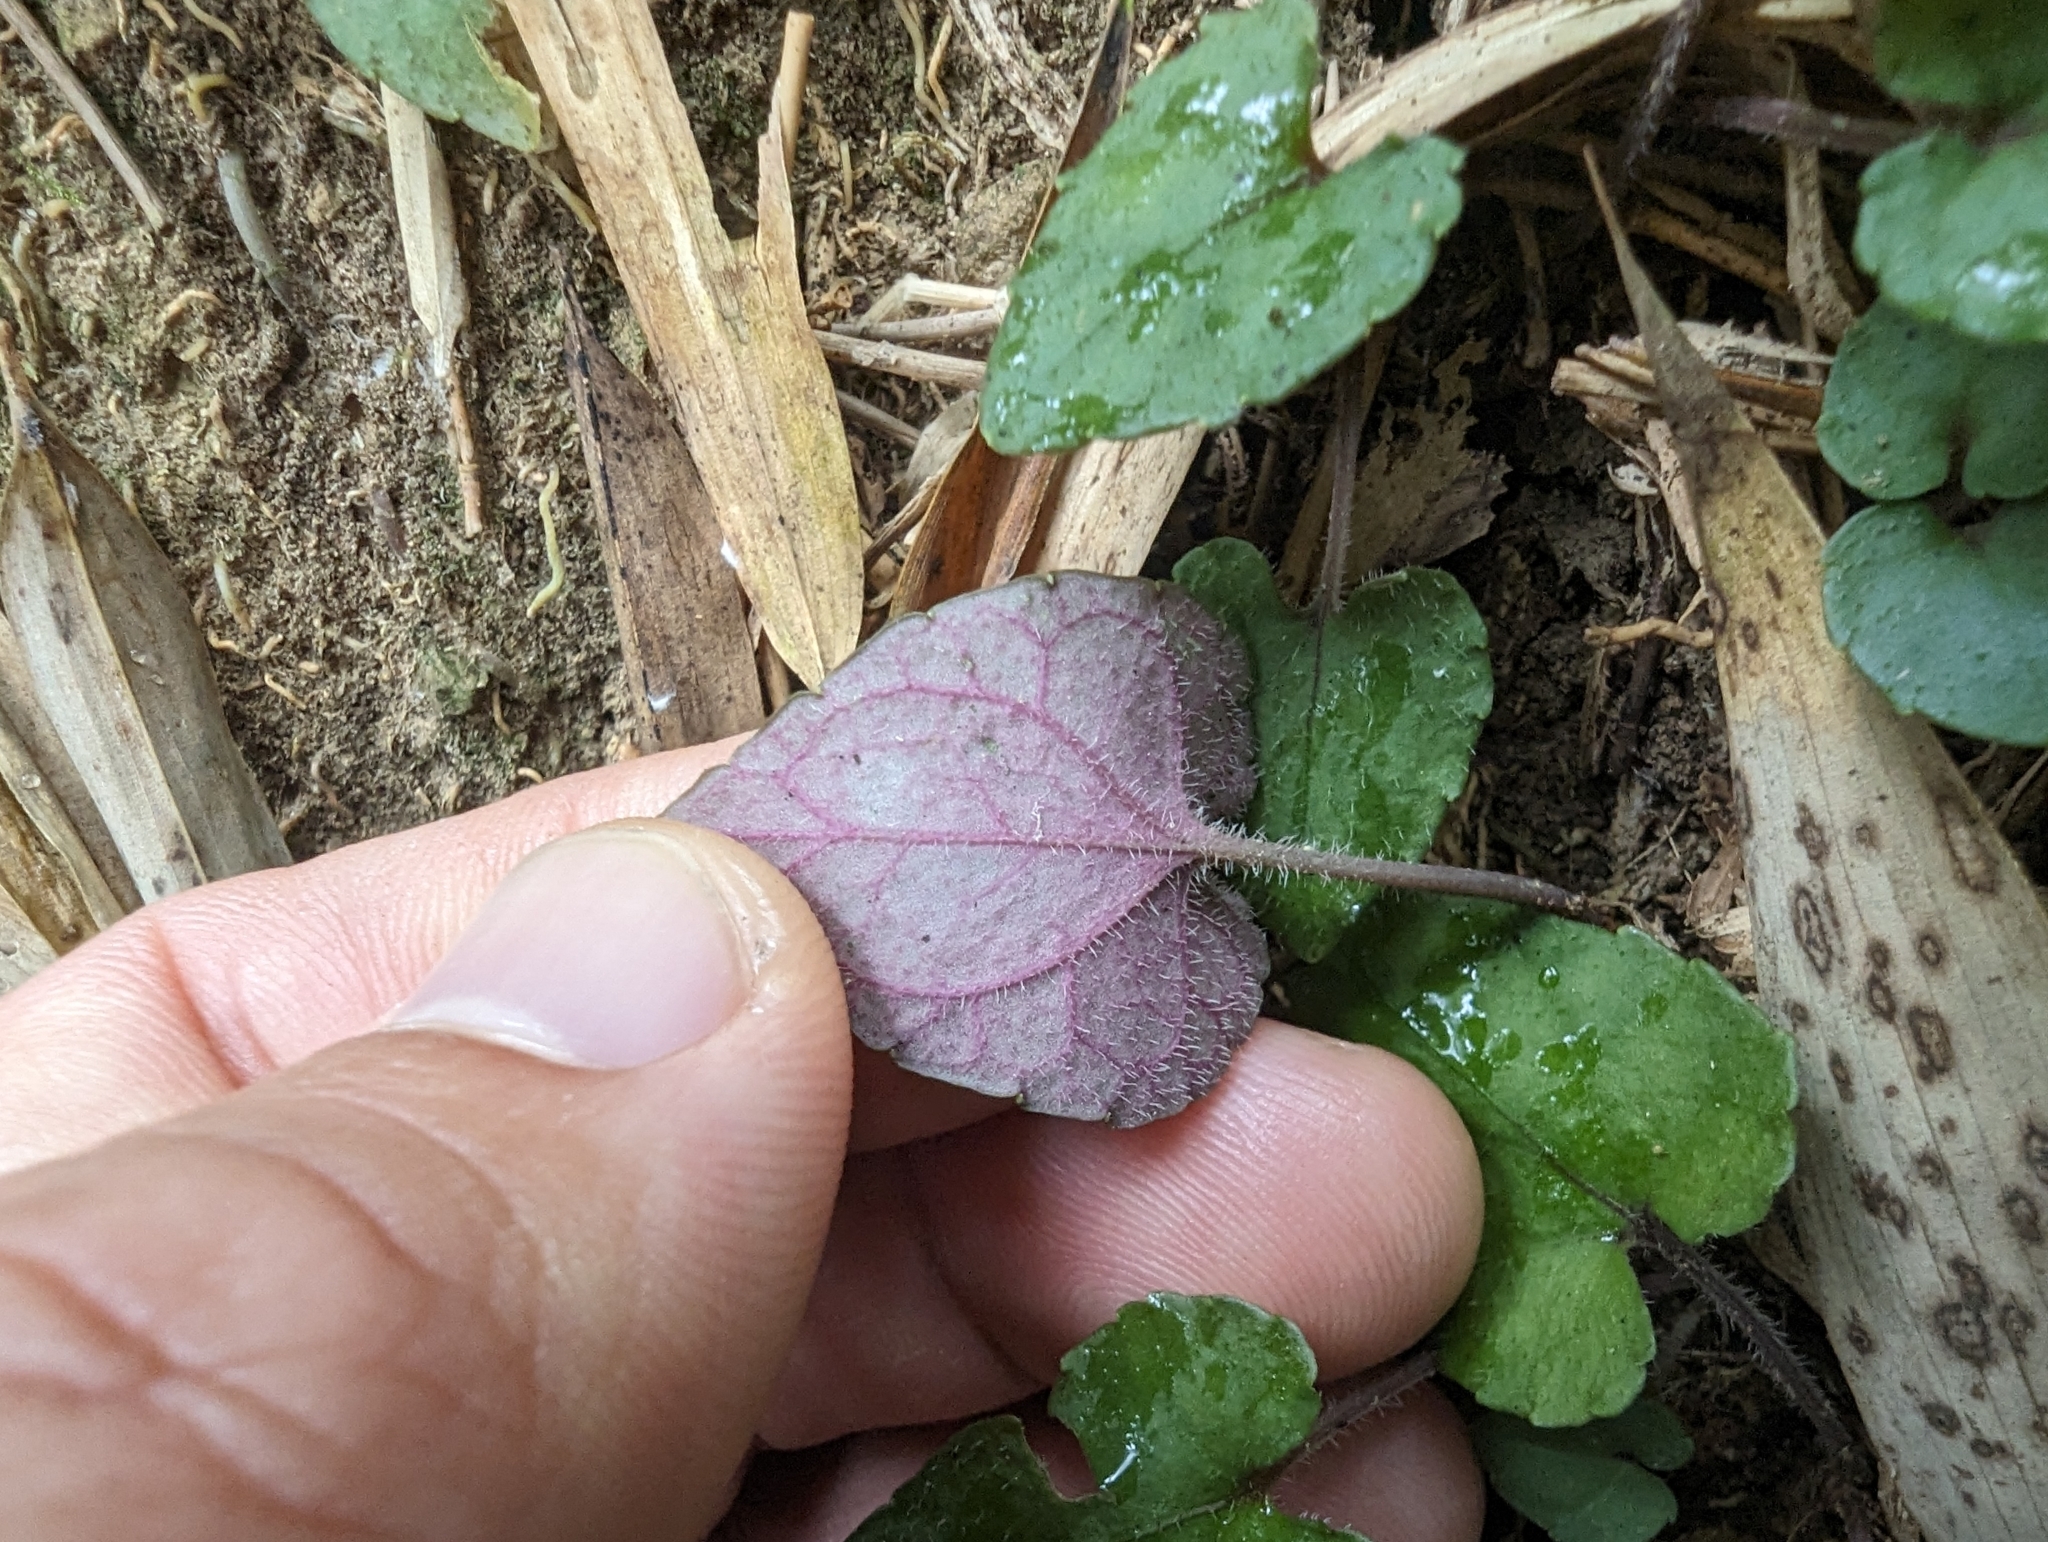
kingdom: Plantae
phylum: Tracheophyta
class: Magnoliopsida
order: Malpighiales
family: Violaceae
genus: Viola
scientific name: Viola formosana
